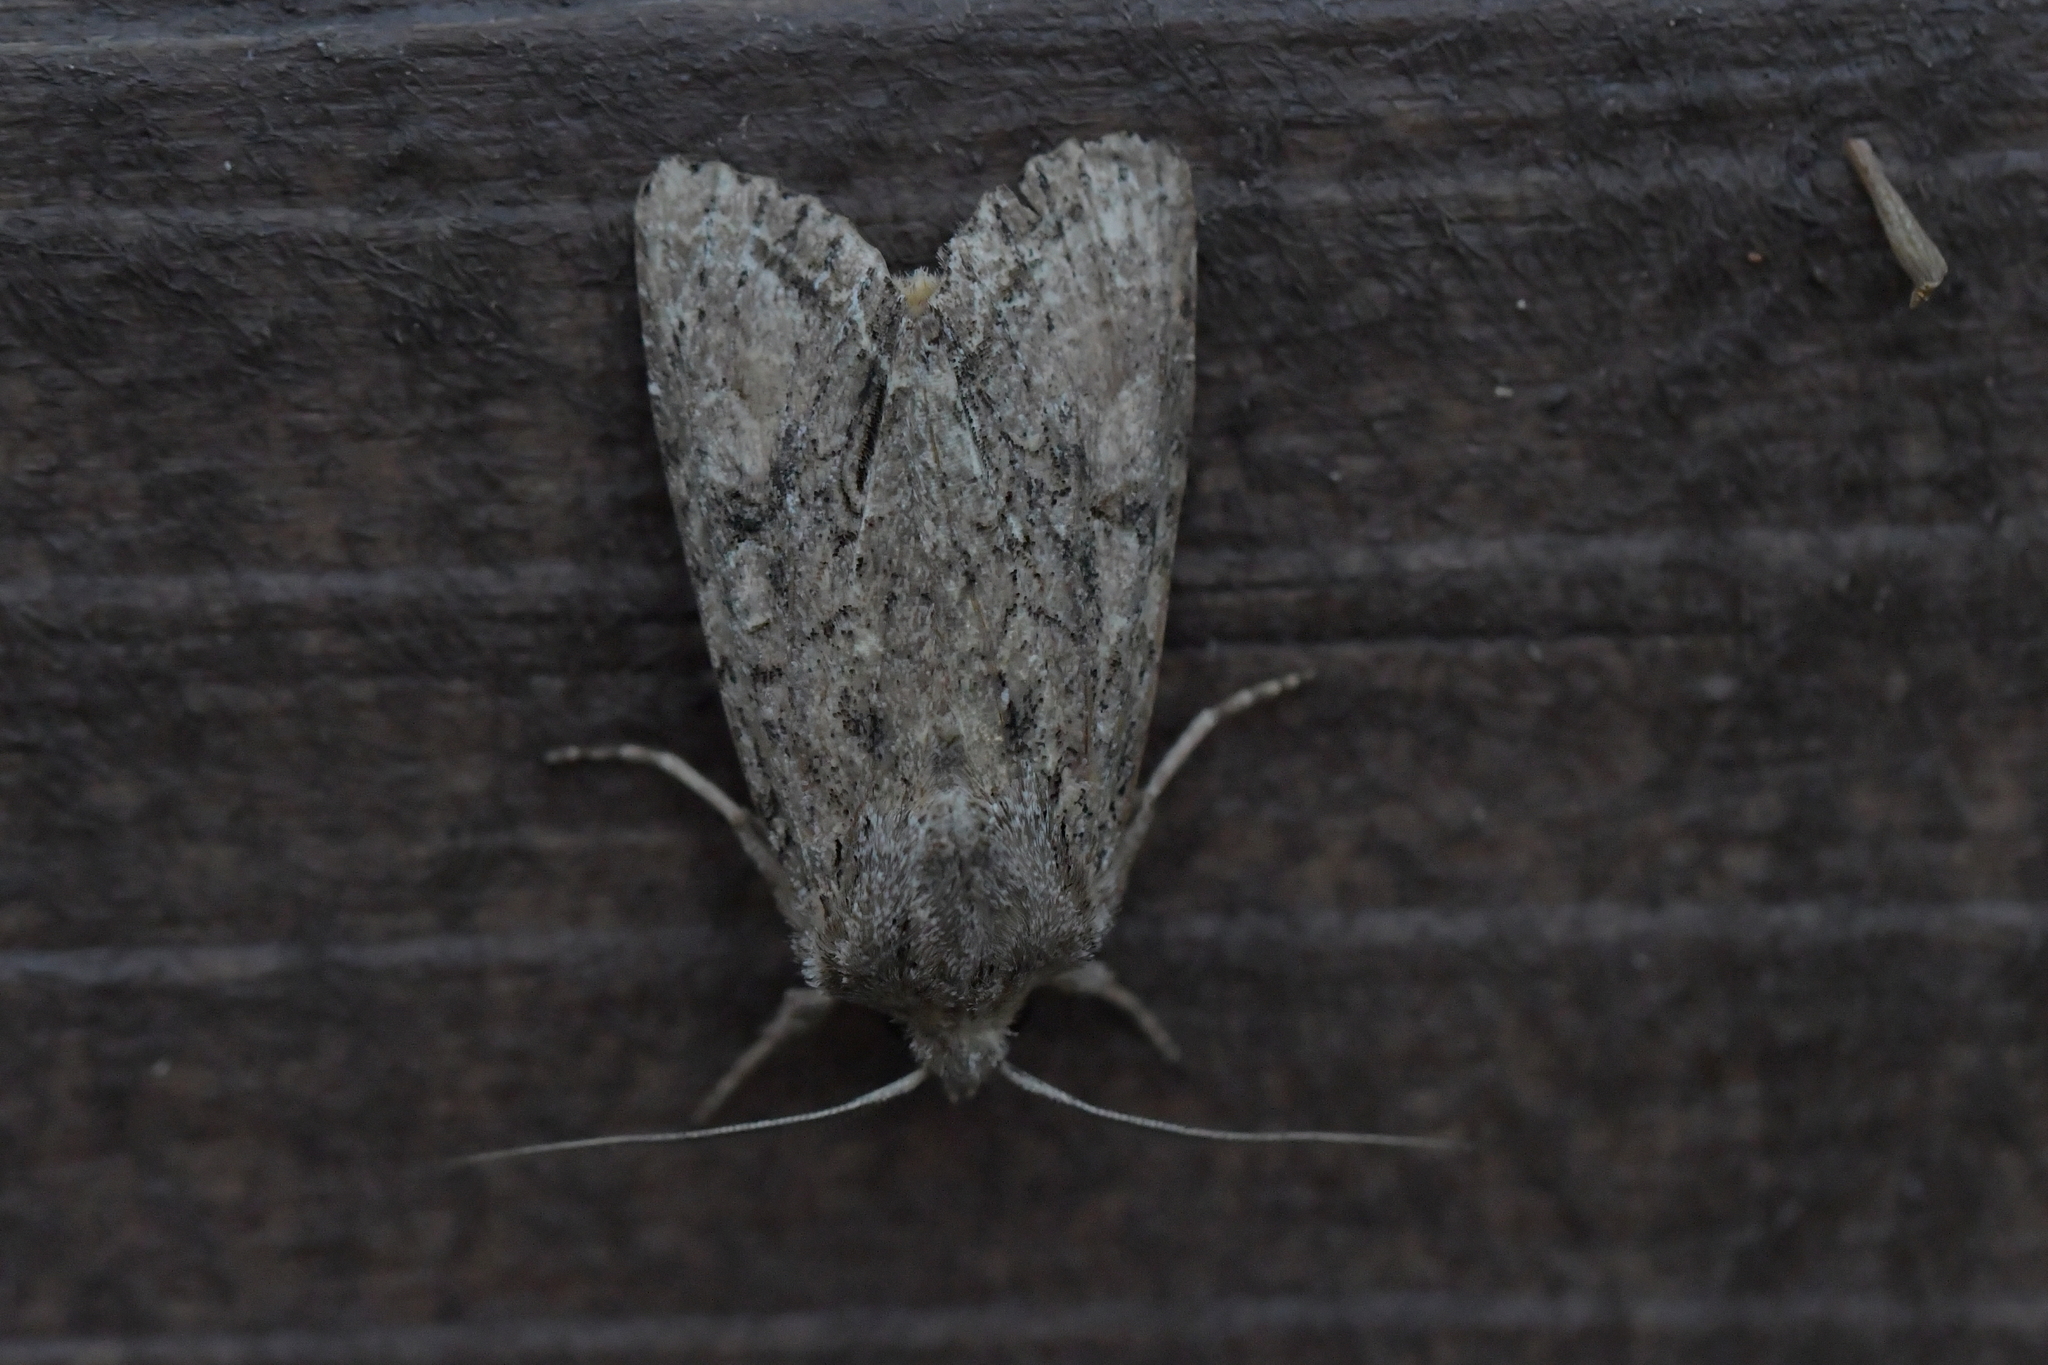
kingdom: Animalia
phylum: Arthropoda
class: Insecta
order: Lepidoptera
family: Noctuidae
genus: Ichneutica
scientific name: Ichneutica mutans
